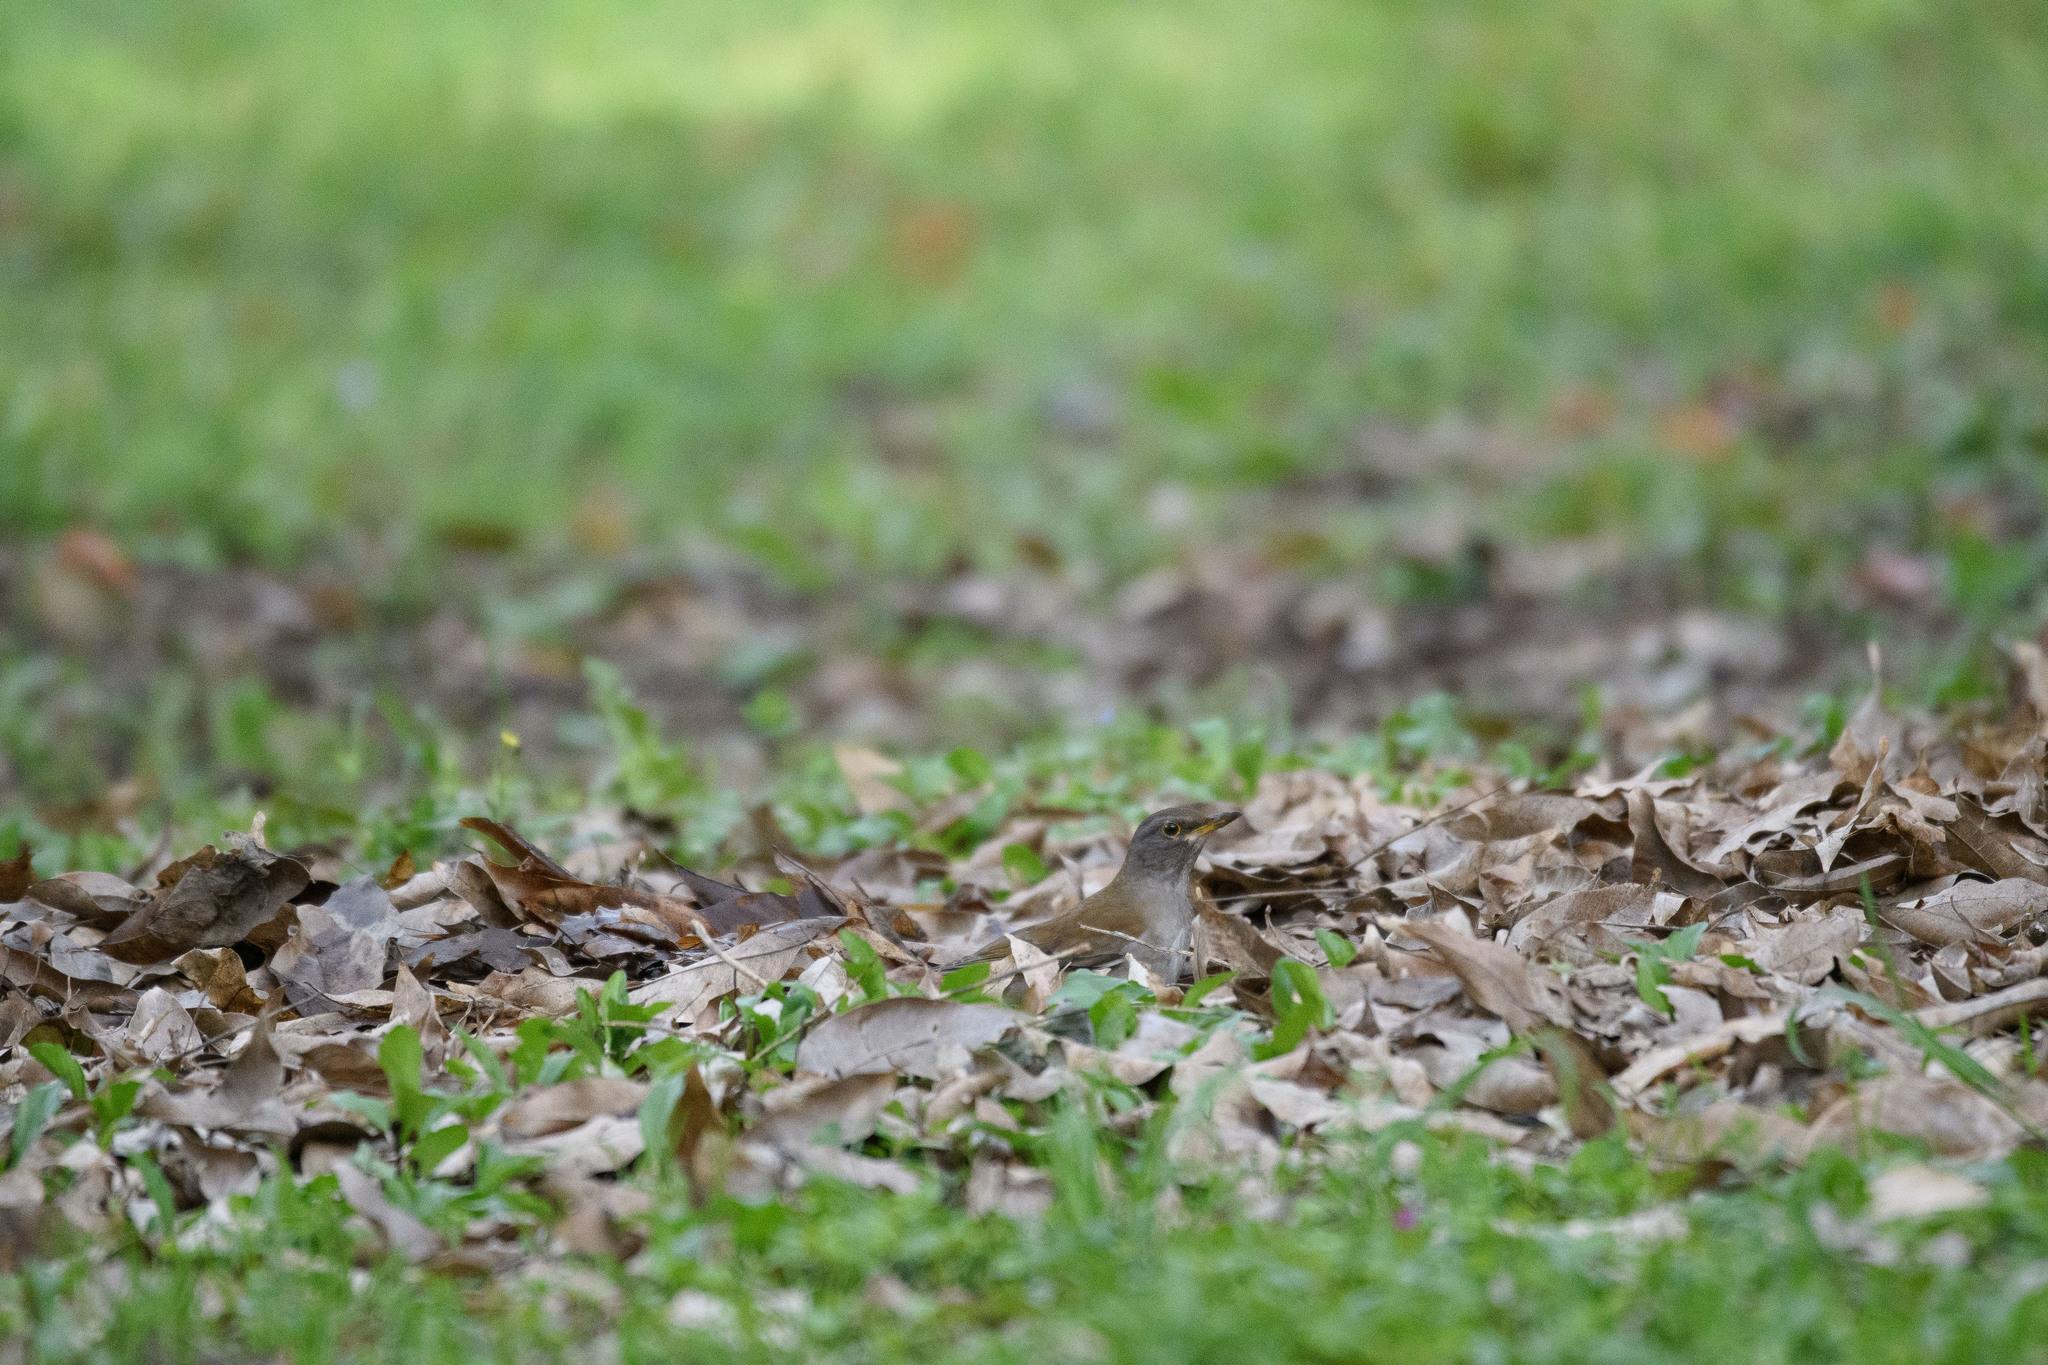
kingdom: Animalia
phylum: Chordata
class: Aves
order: Passeriformes
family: Turdidae
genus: Turdus
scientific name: Turdus pallidus
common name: Pale thrush
